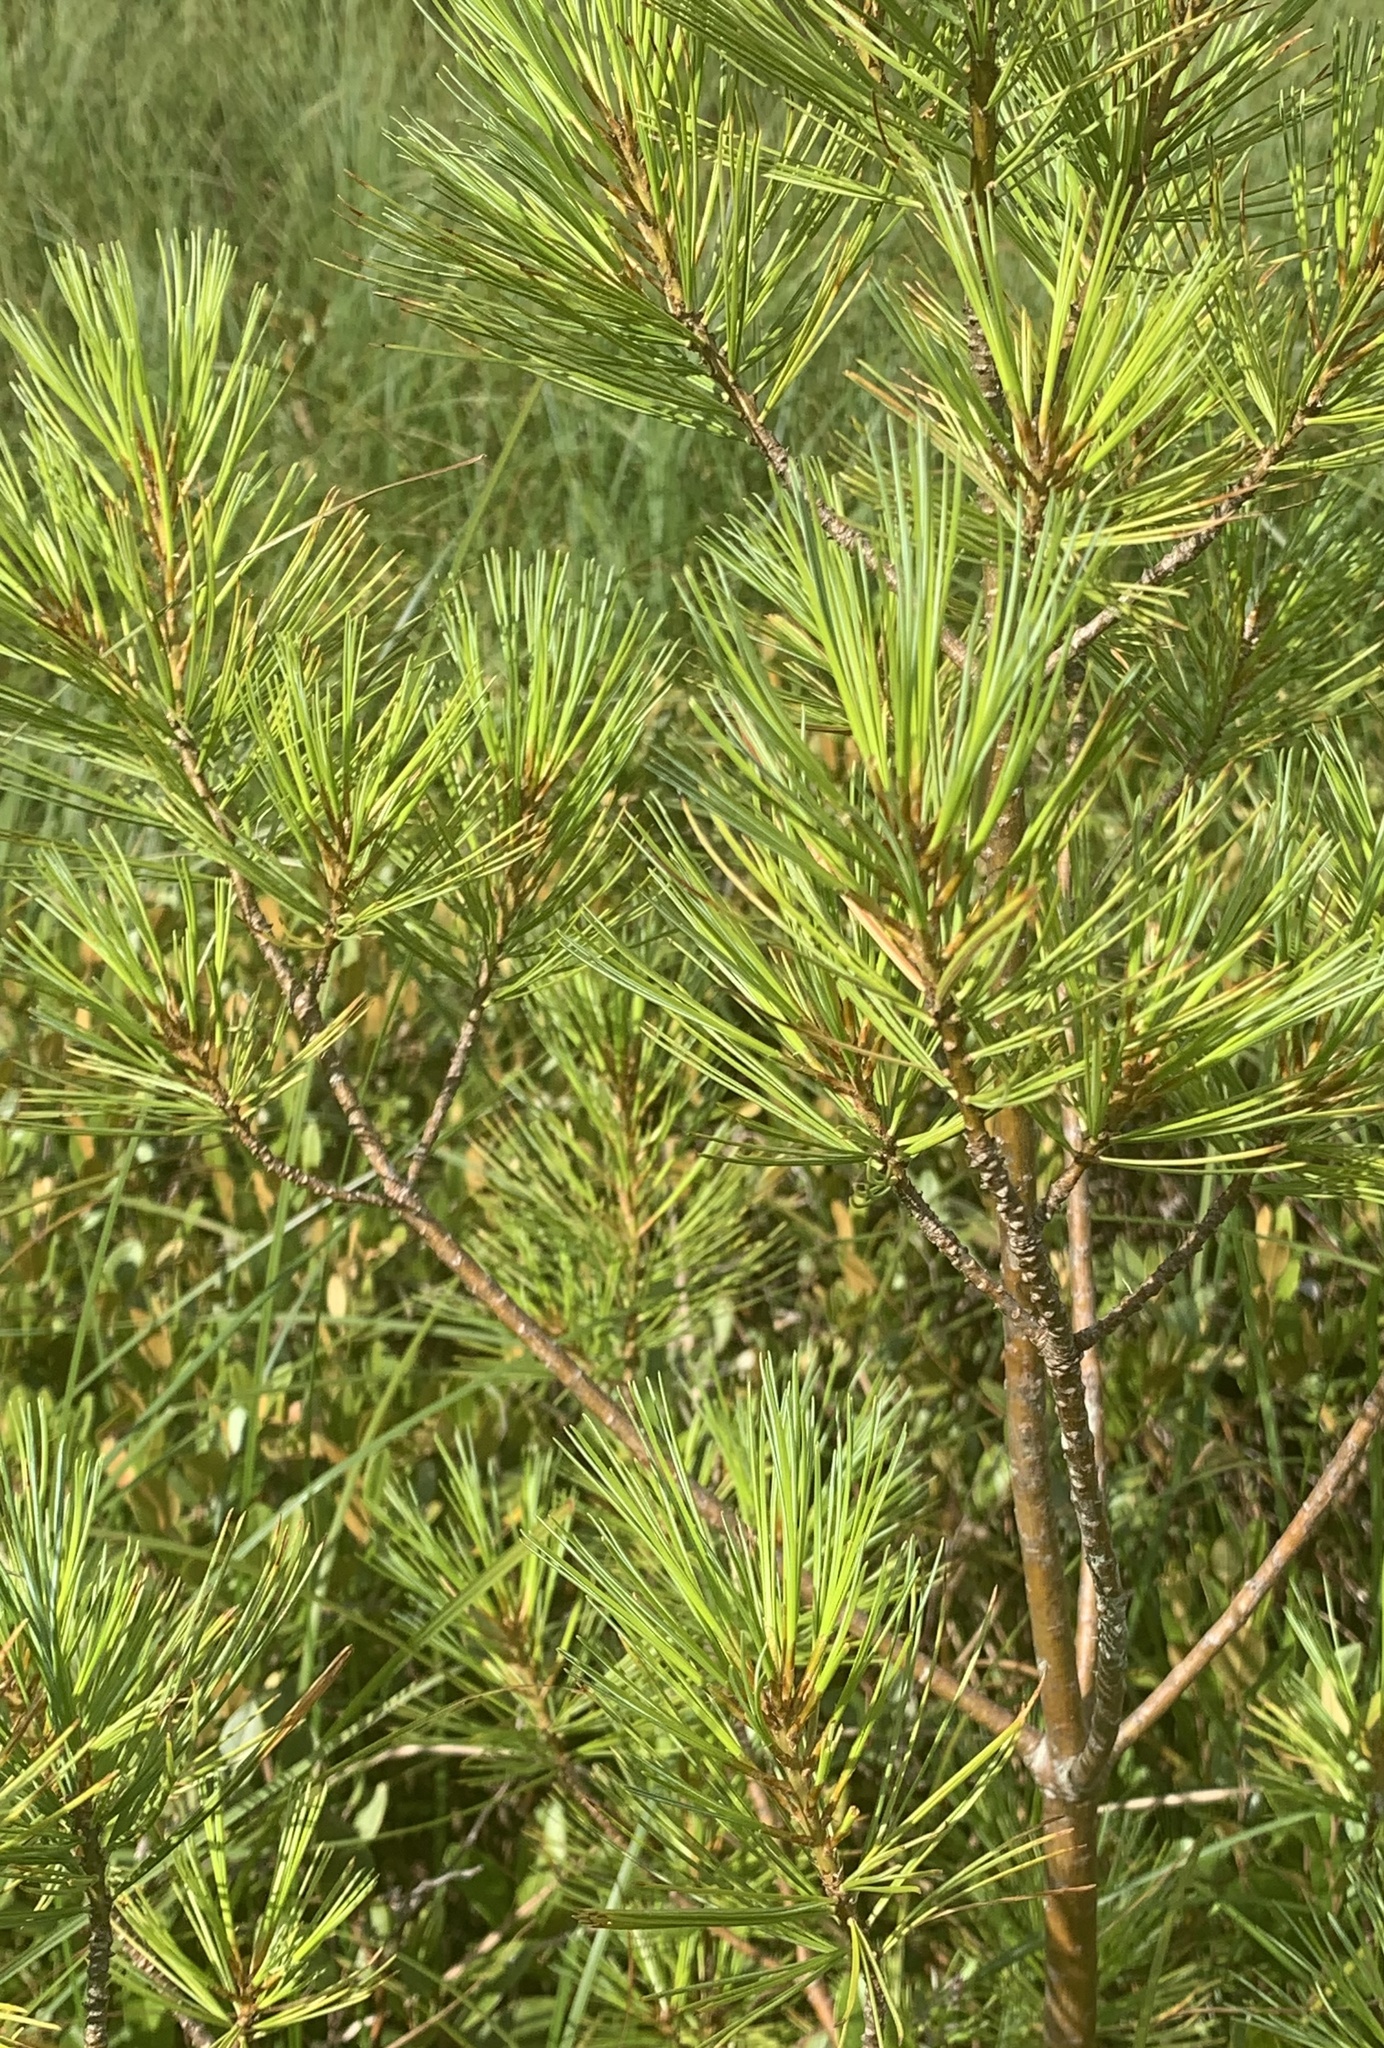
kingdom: Plantae
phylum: Tracheophyta
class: Pinopsida
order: Pinales
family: Pinaceae
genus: Pinus
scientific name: Pinus strobus
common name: Weymouth pine
